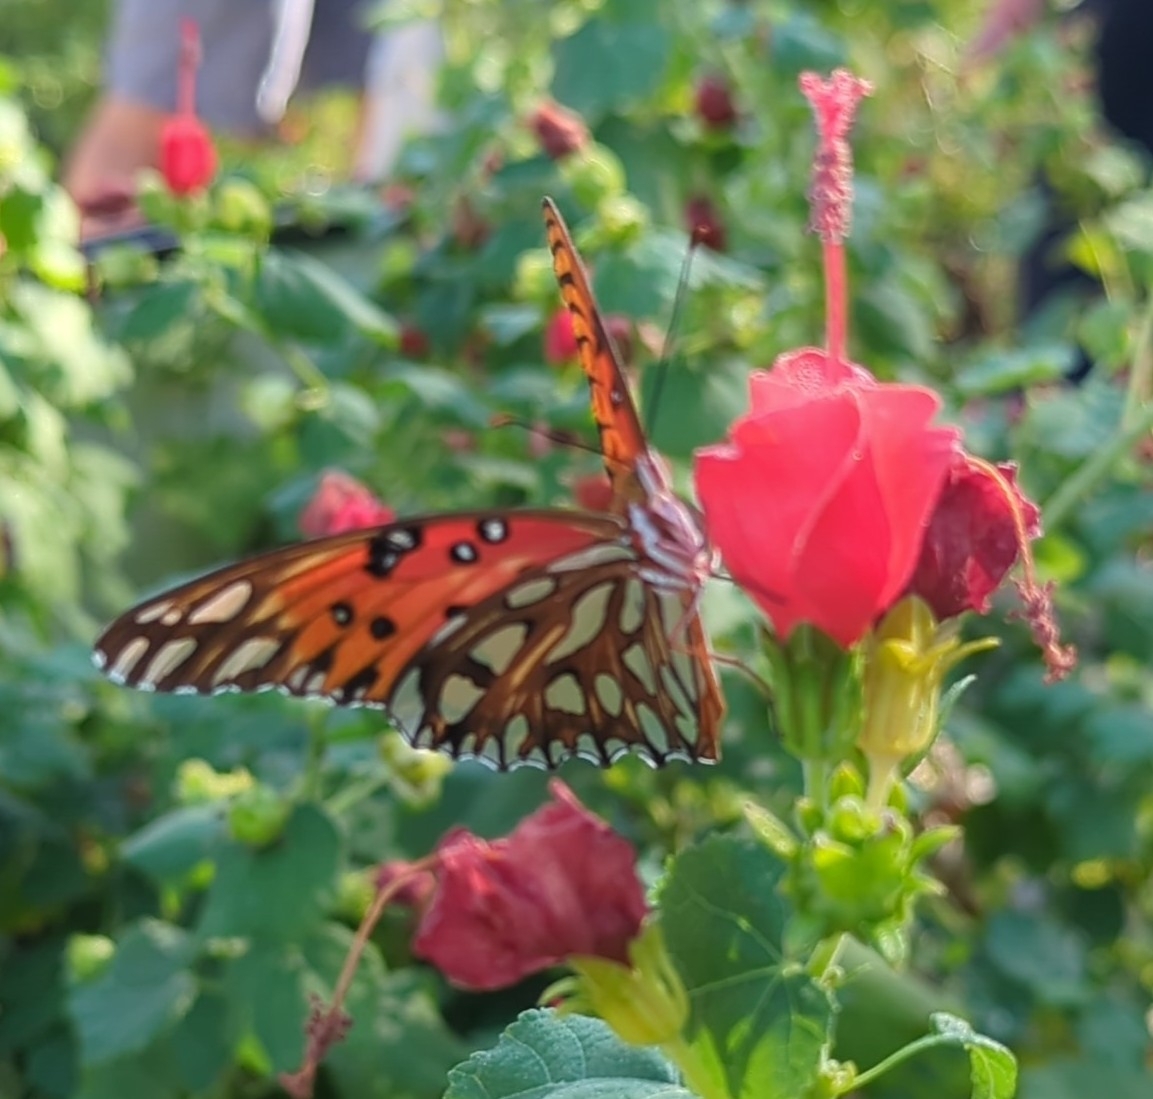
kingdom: Animalia
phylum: Arthropoda
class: Insecta
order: Lepidoptera
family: Nymphalidae
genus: Dione
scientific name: Dione vanillae
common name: Gulf fritillary
